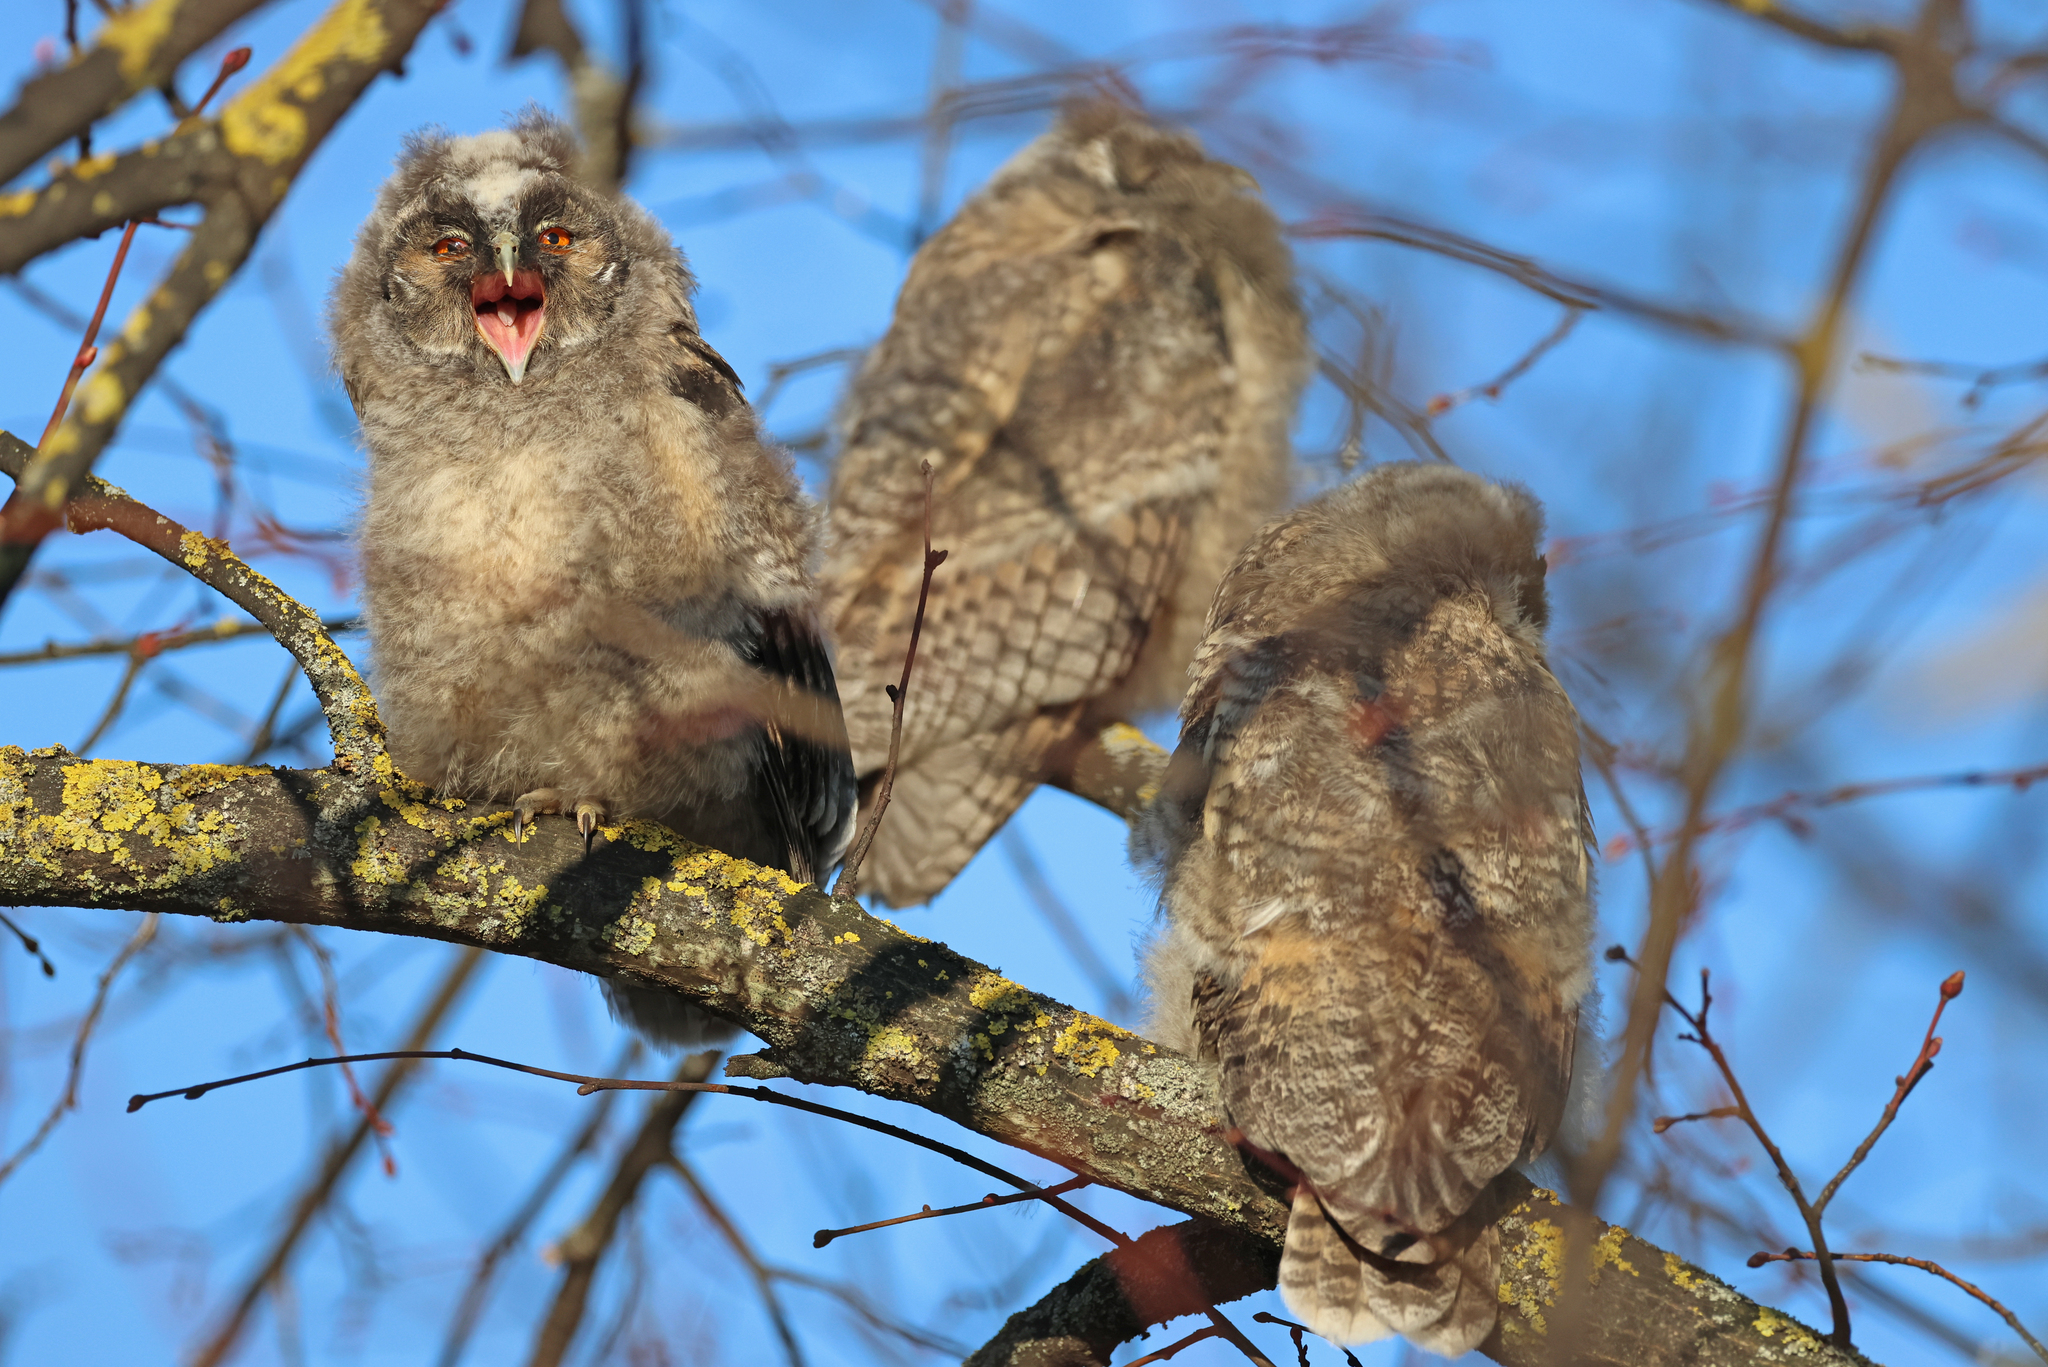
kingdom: Animalia
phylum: Chordata
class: Aves
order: Strigiformes
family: Strigidae
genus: Asio
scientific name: Asio otus
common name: Long-eared owl
